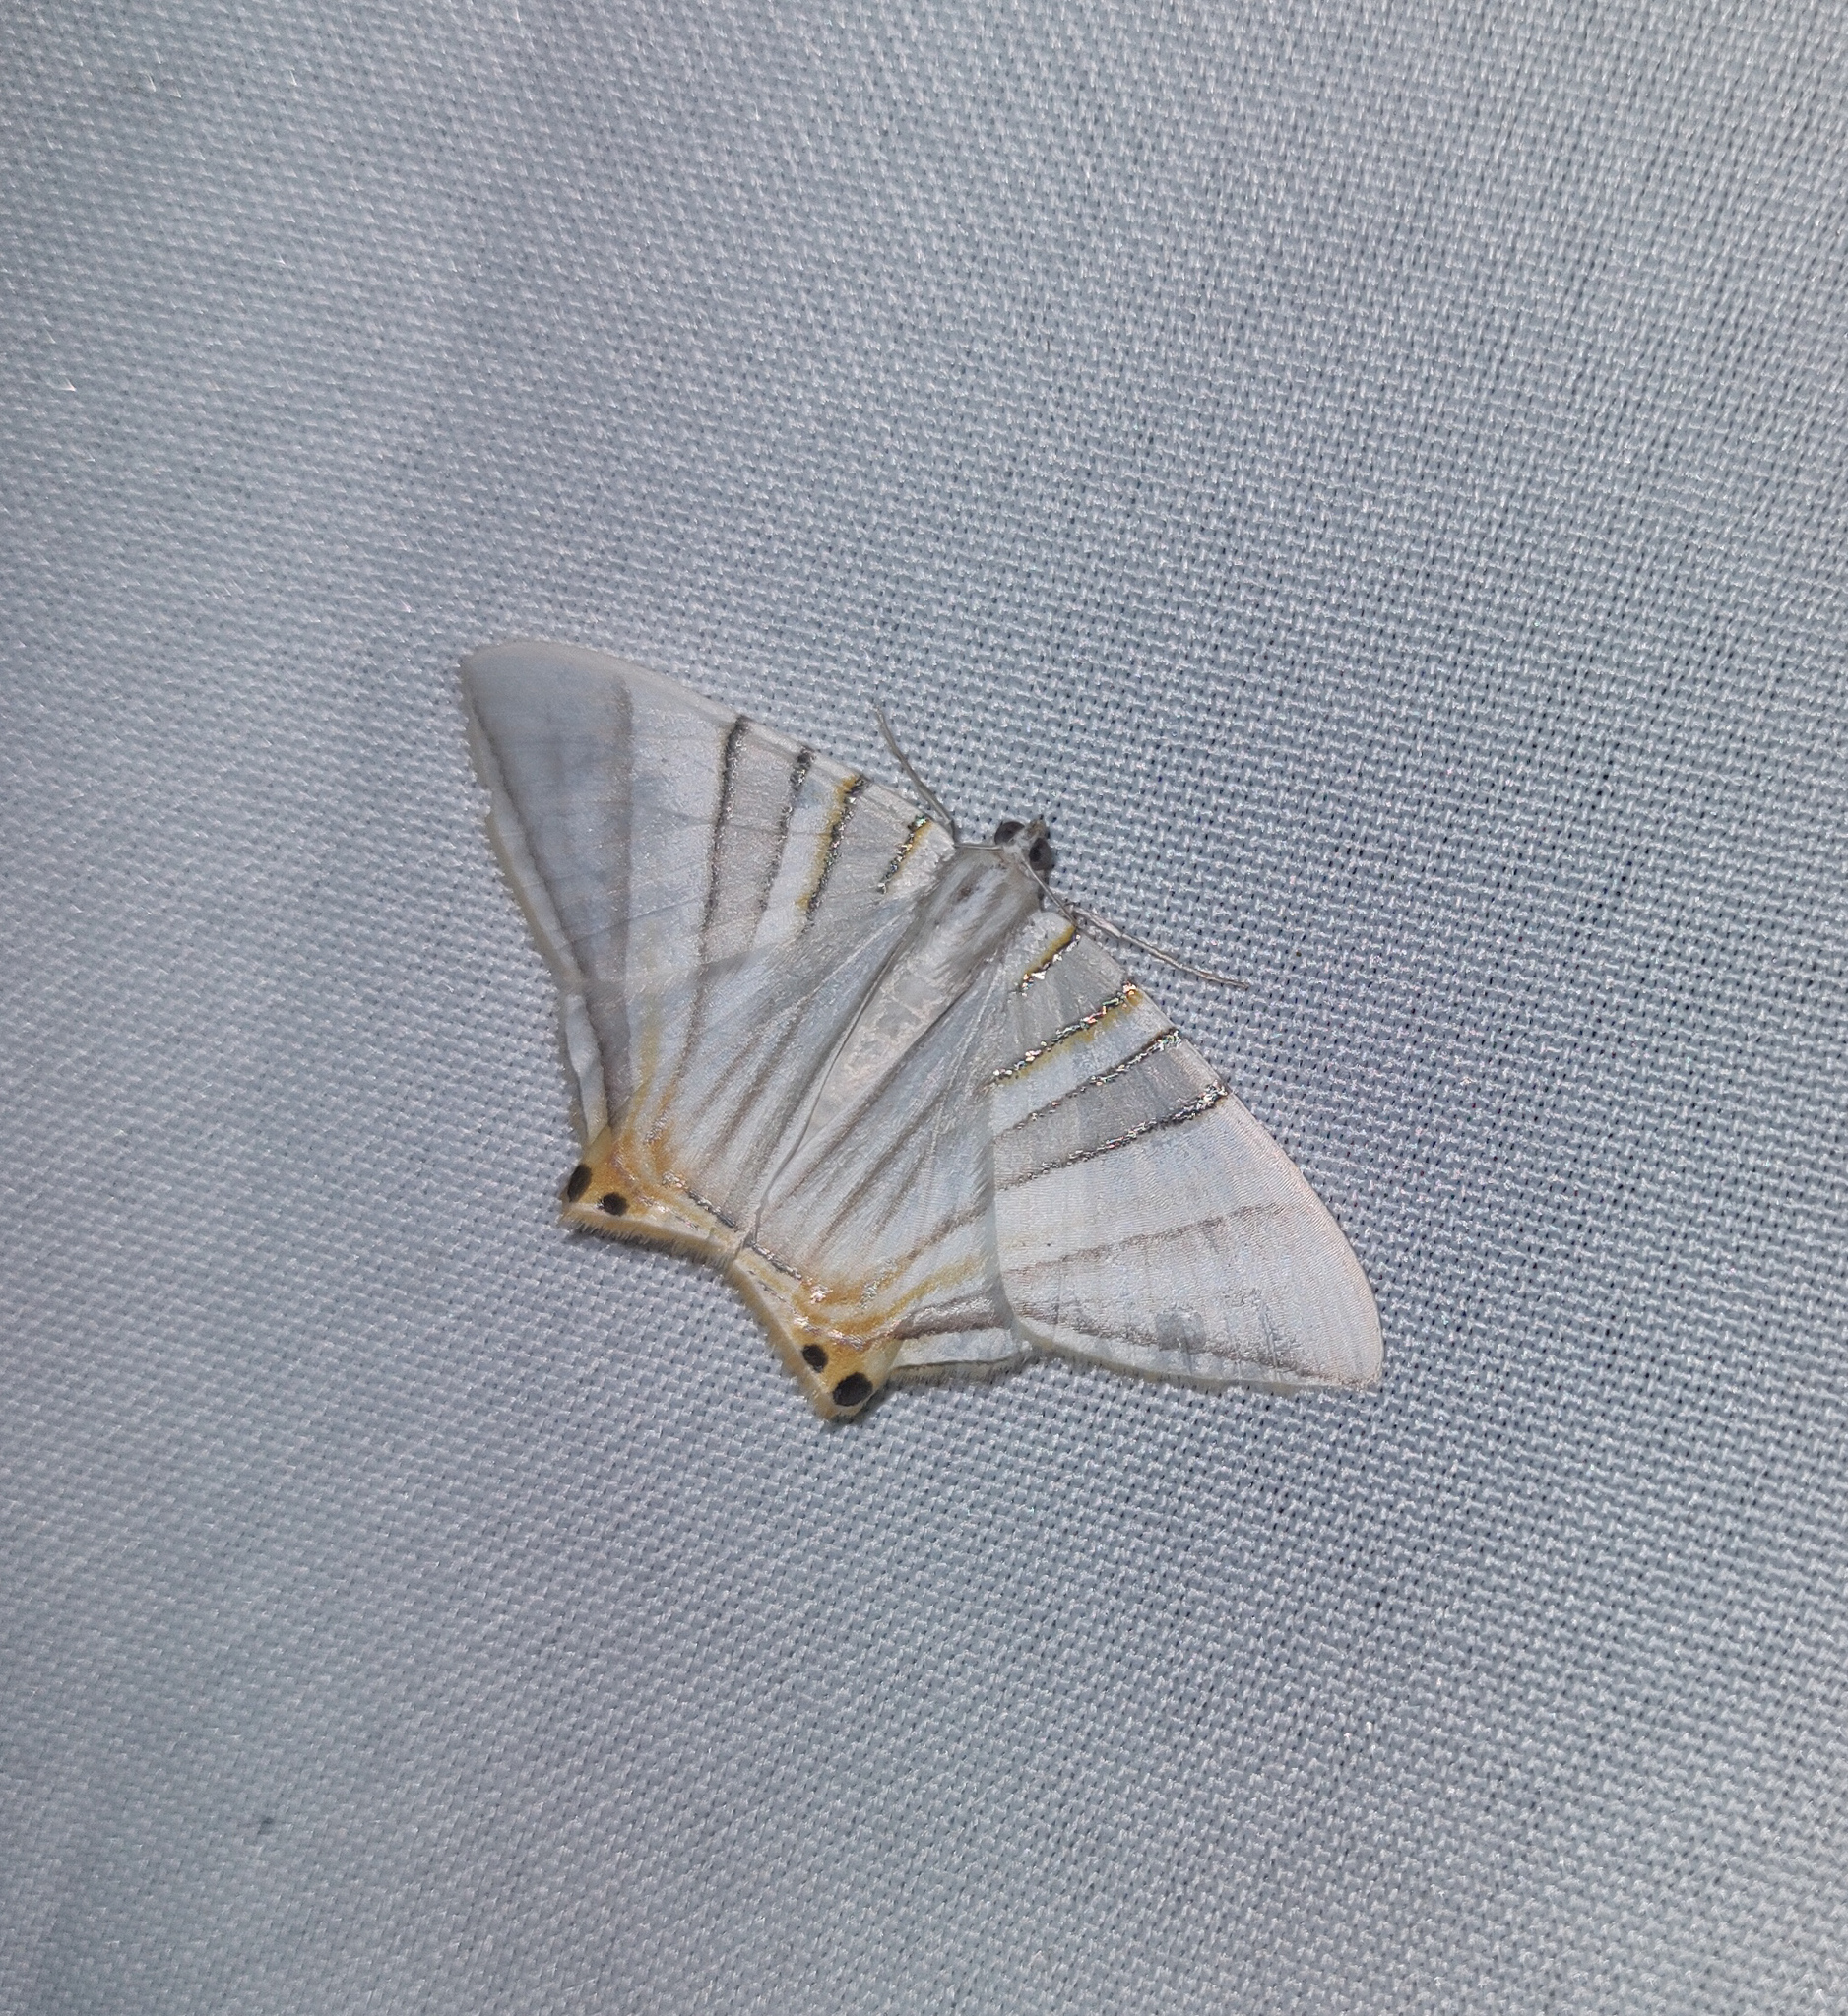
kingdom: Animalia
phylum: Arthropoda
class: Insecta
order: Lepidoptera
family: Geometridae
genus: Phrygionis
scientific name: Phrygionis platinata
